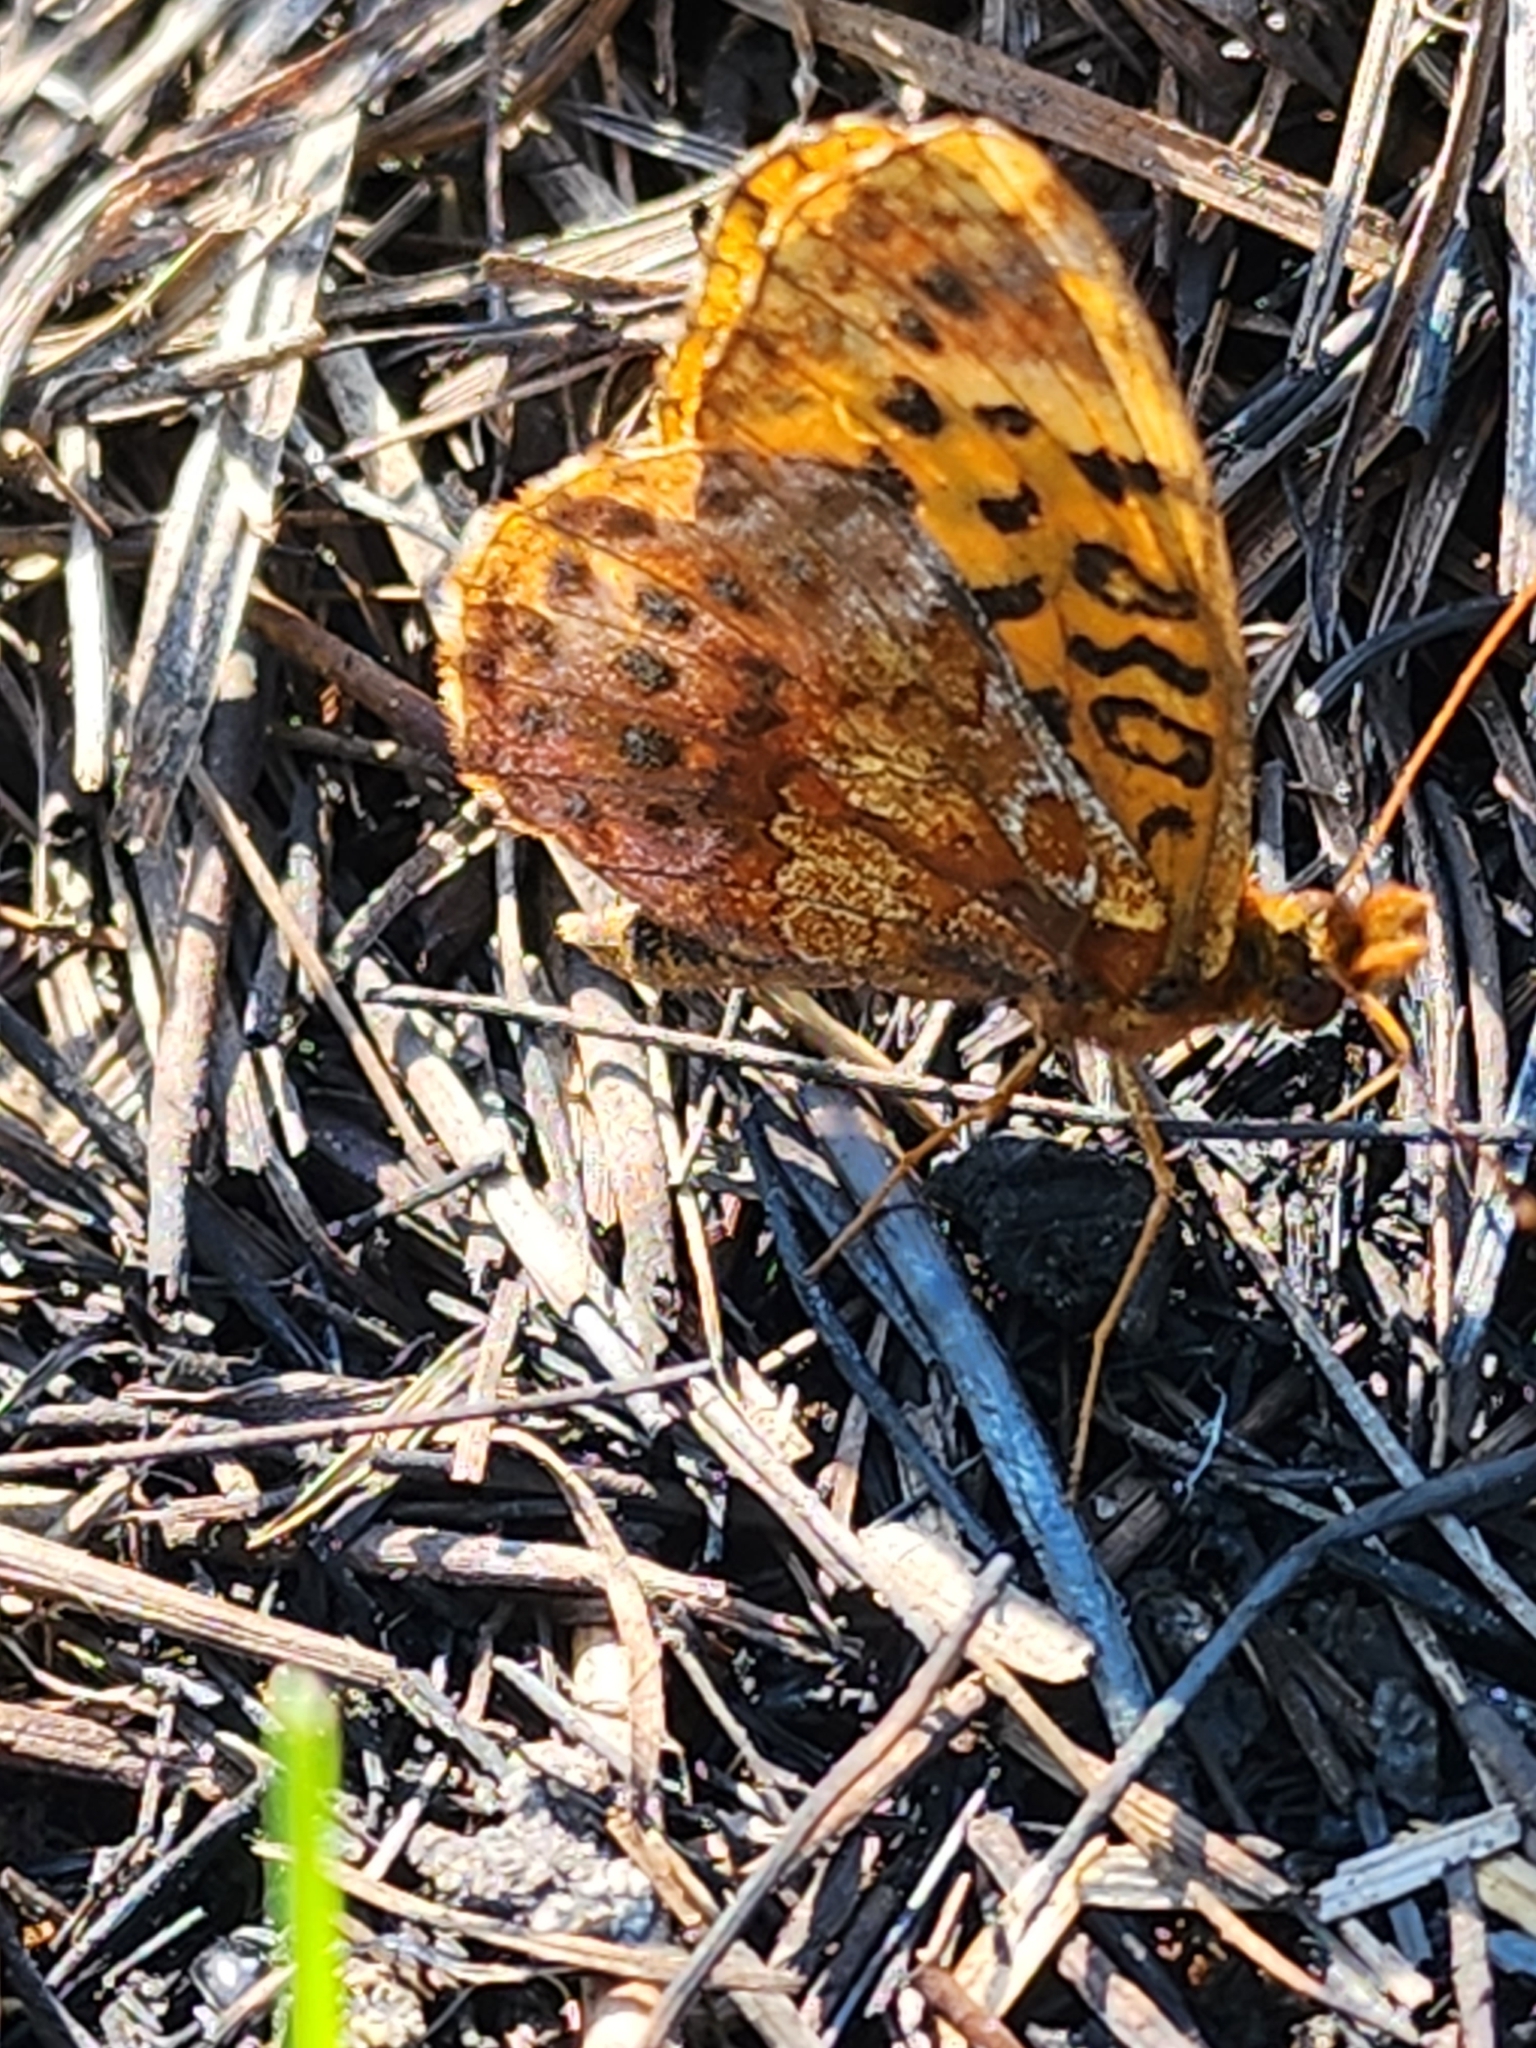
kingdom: Animalia
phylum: Arthropoda
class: Insecta
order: Lepidoptera
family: Nymphalidae
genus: Clossiana
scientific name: Clossiana toddi
